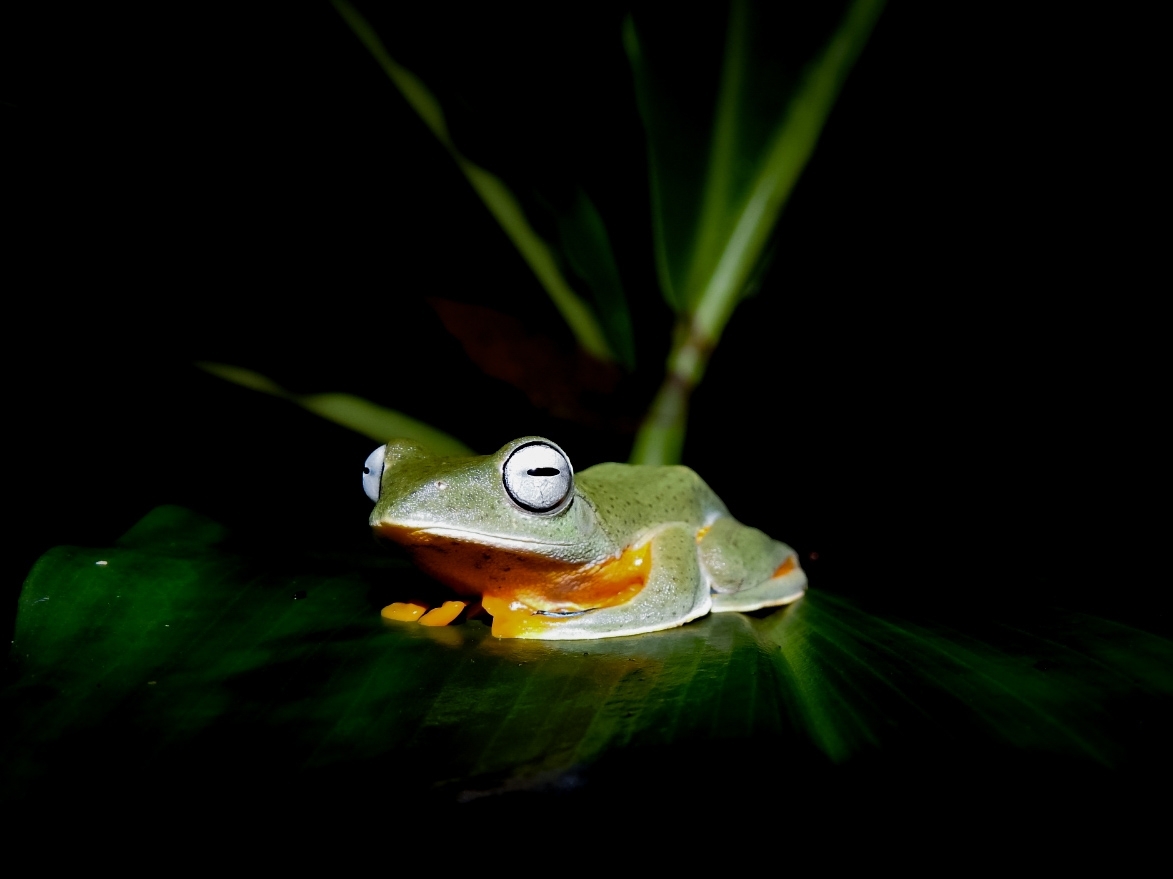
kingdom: Animalia
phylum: Chordata
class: Amphibia
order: Anura
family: Rhacophoridae
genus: Rhacophorus
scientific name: Rhacophorus reinwardtii
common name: Reinwardt’s flying frog
